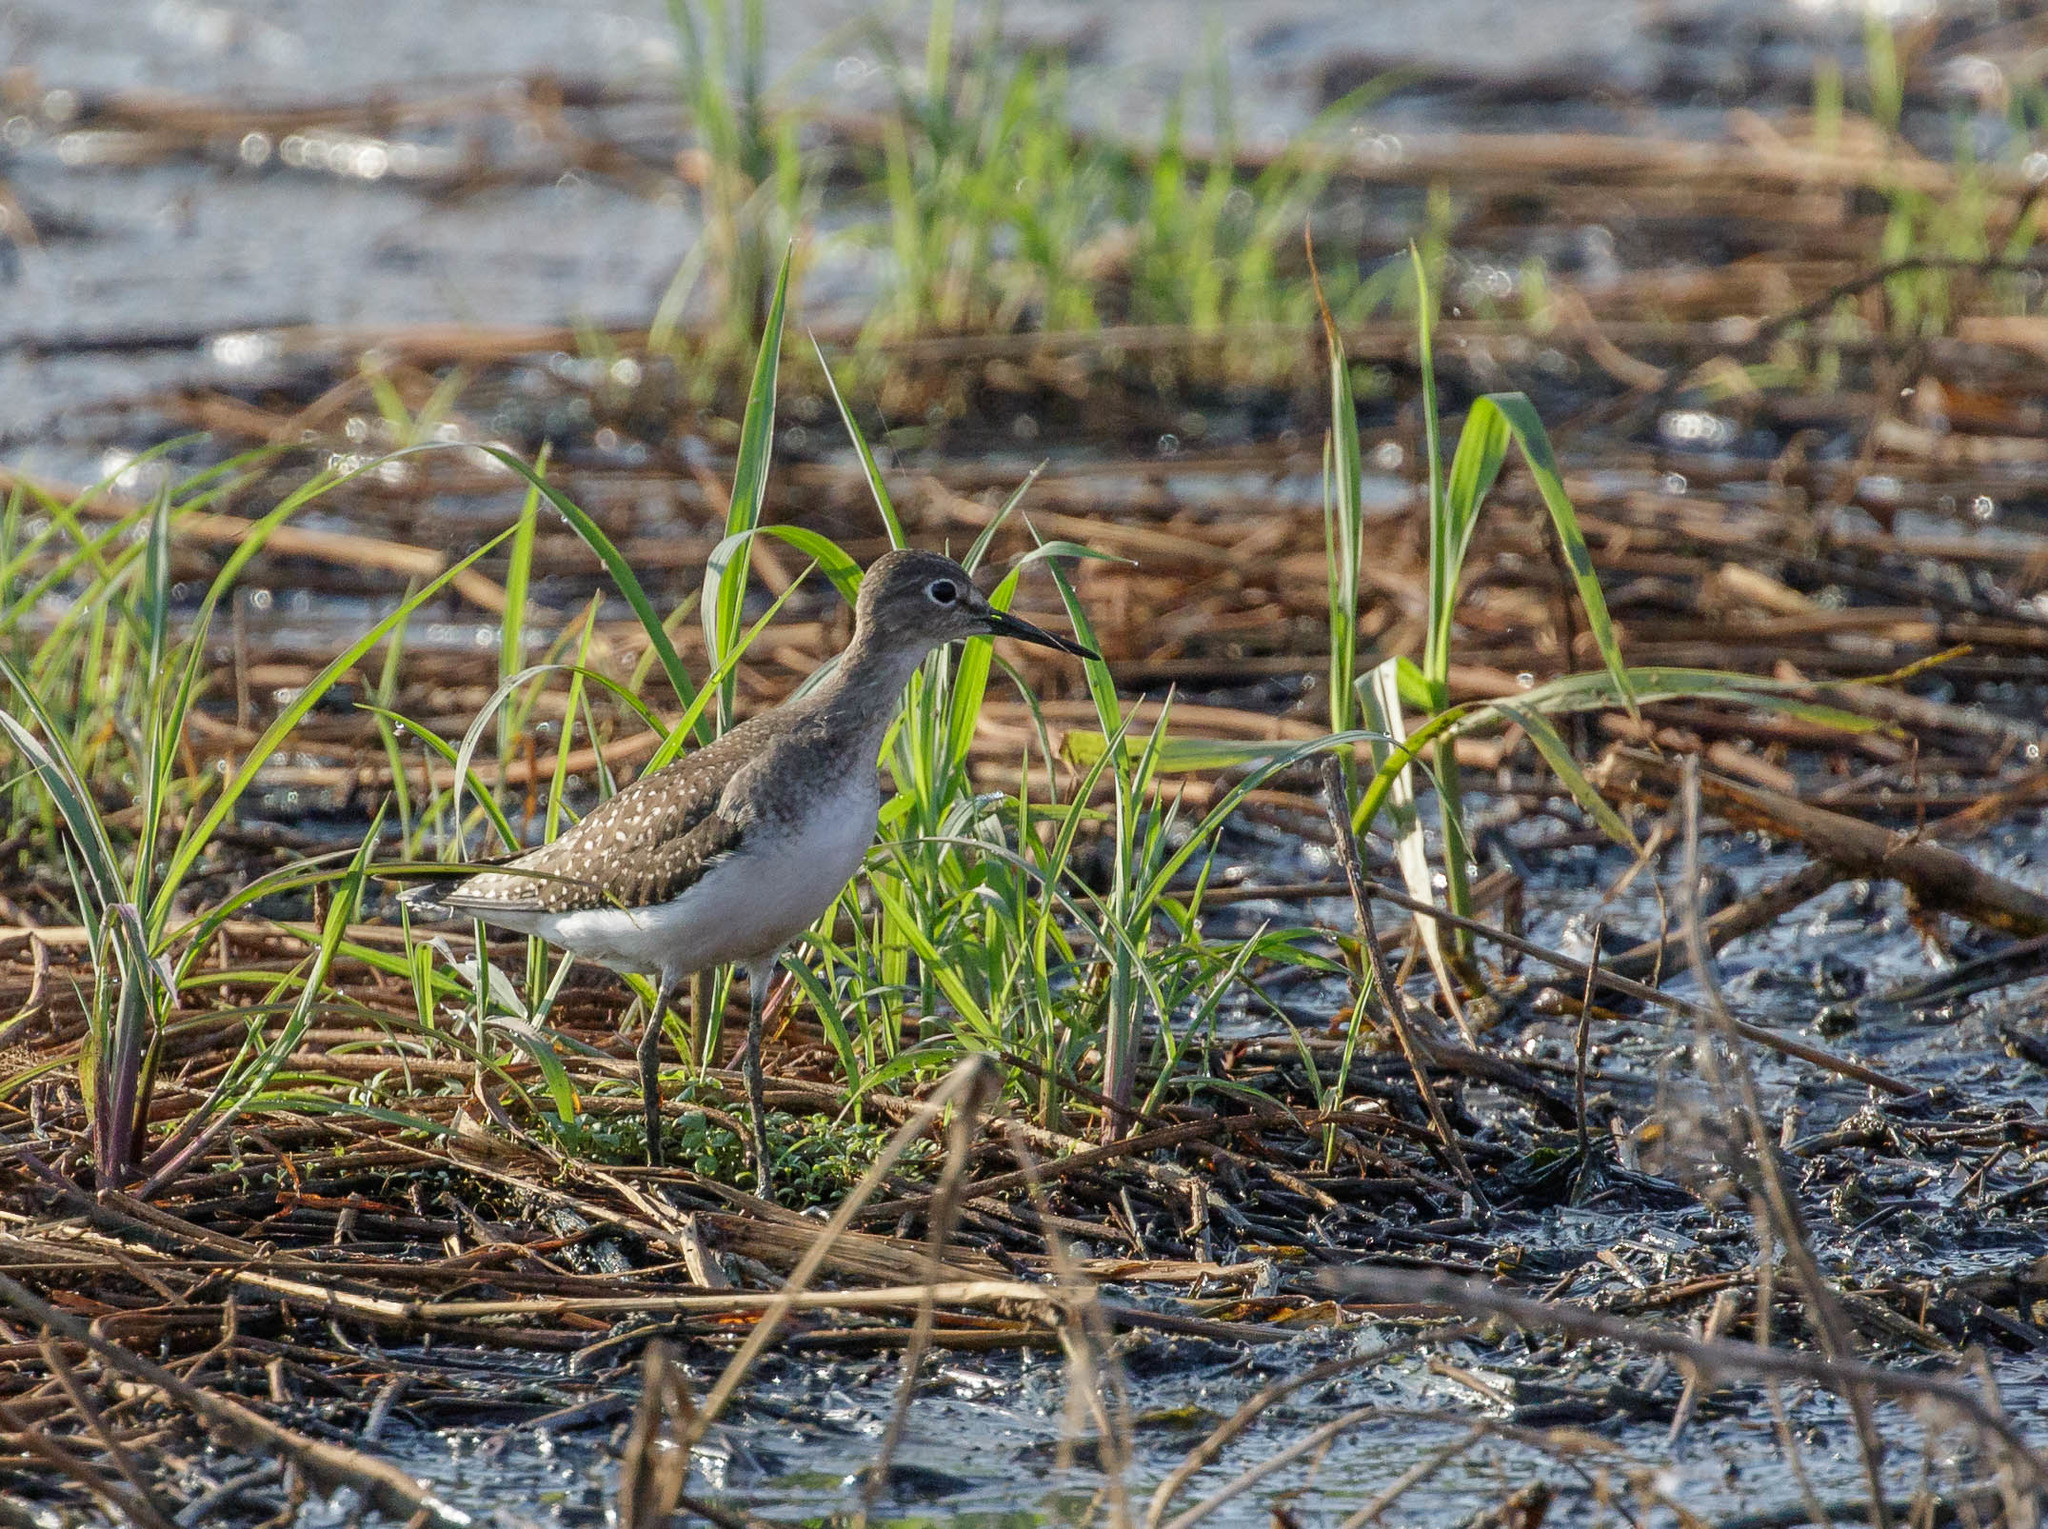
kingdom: Animalia
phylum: Chordata
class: Aves
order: Charadriiformes
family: Scolopacidae
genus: Tringa
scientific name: Tringa solitaria
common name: Solitary sandpiper
